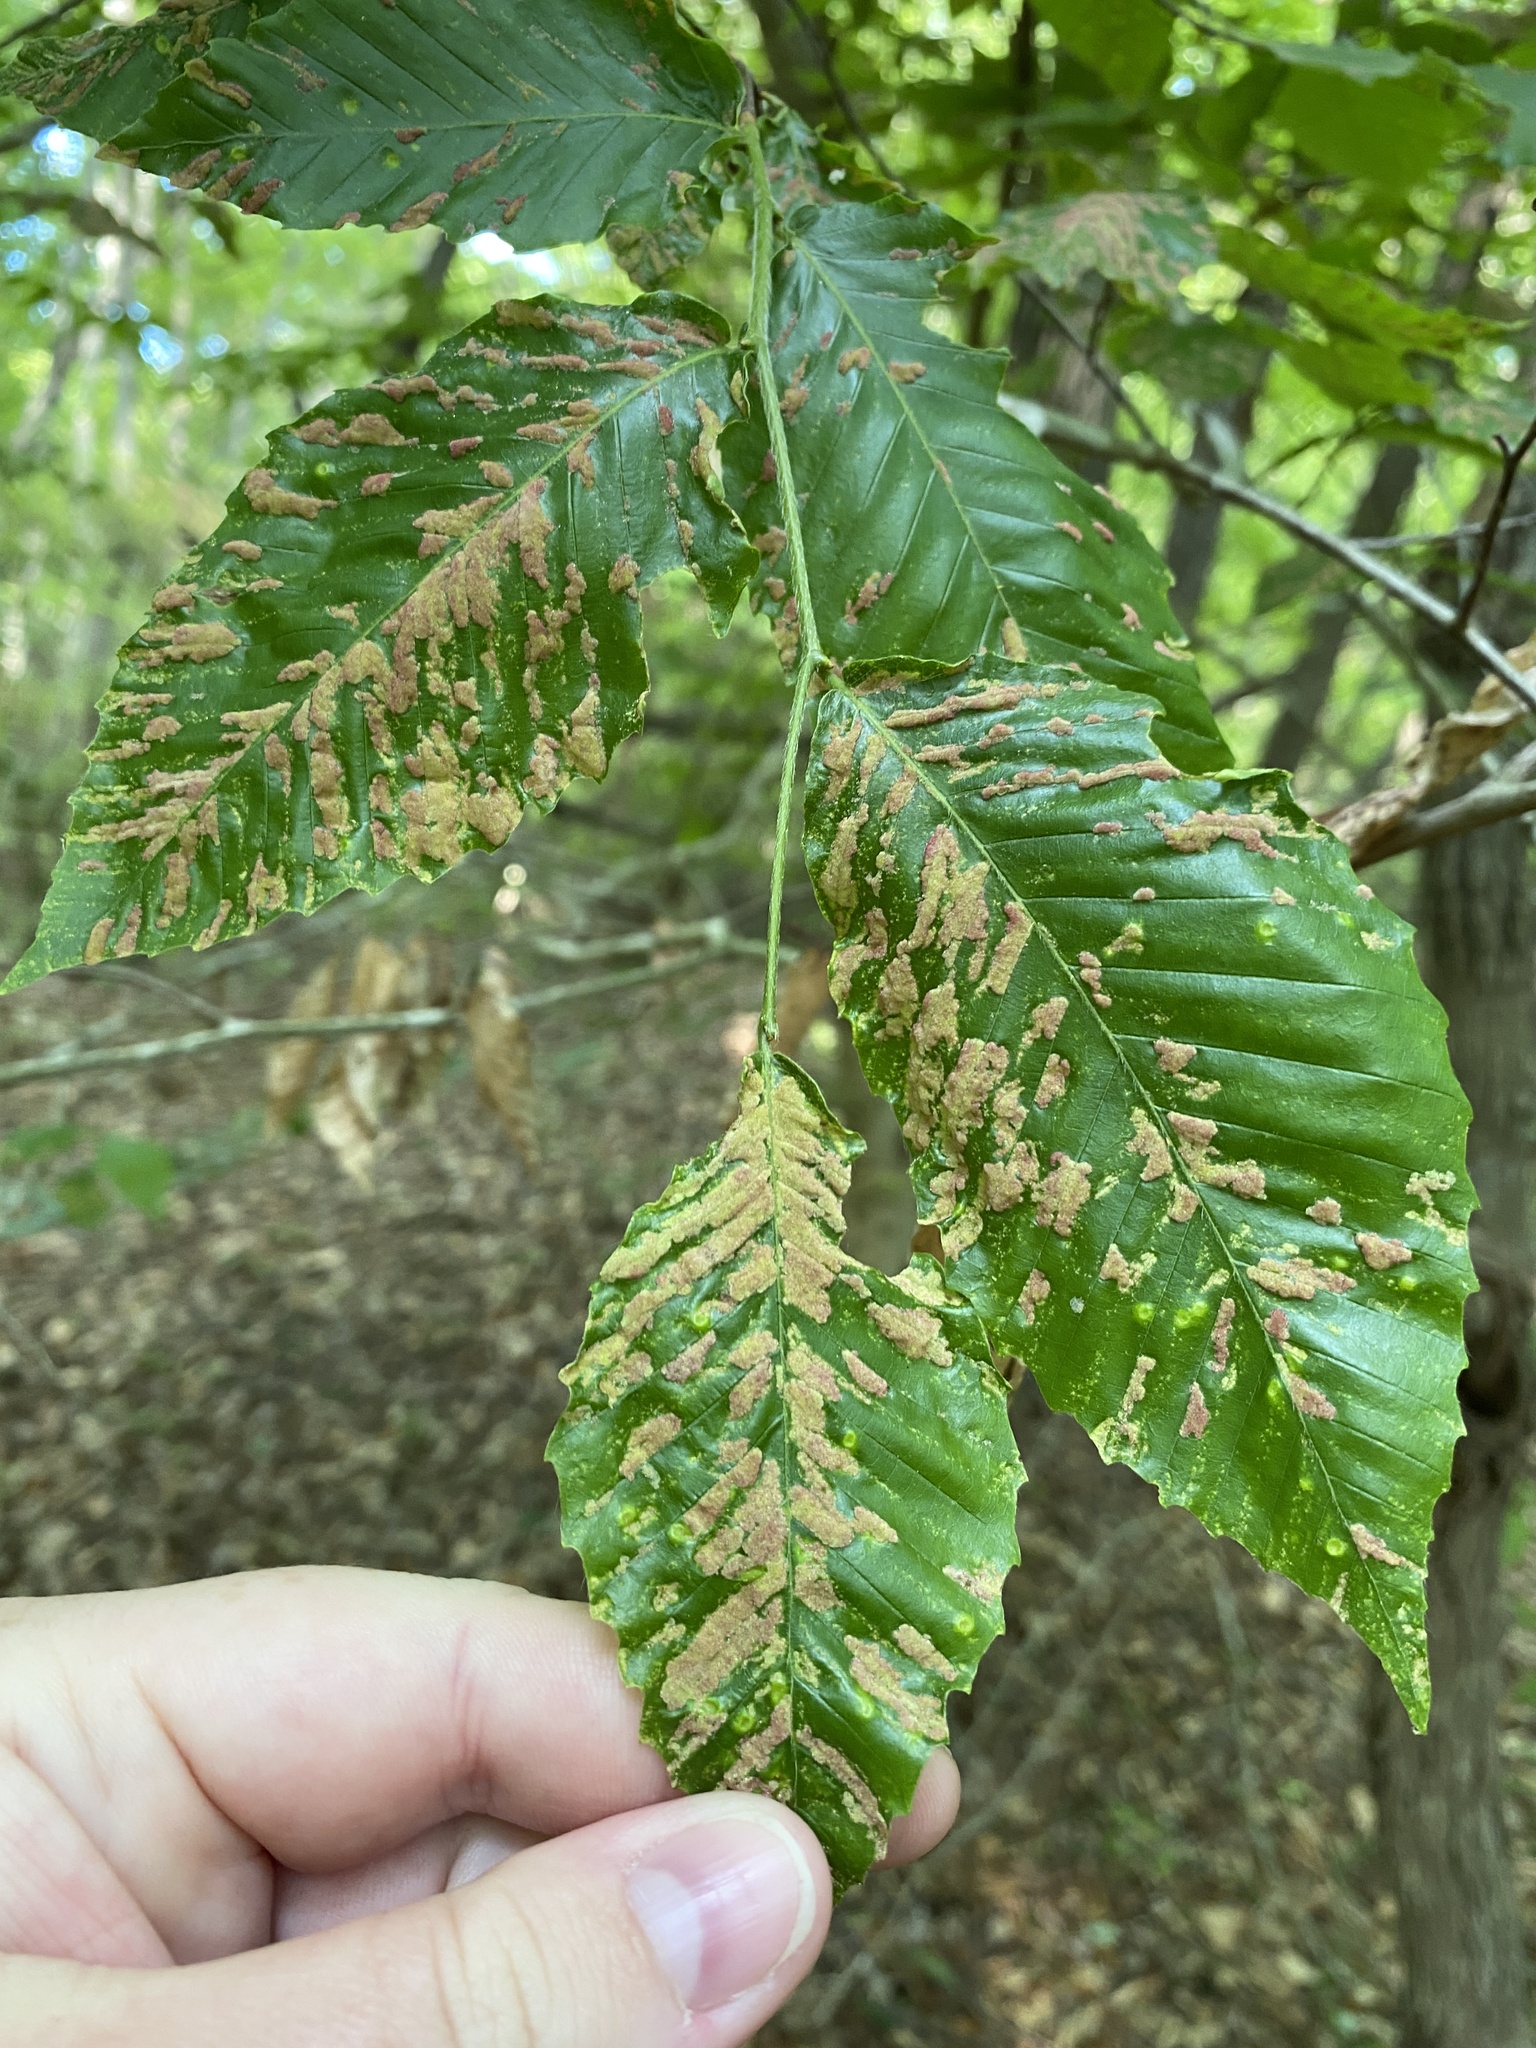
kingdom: Animalia
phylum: Arthropoda
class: Arachnida
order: Trombidiformes
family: Eriophyidae
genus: Acalitus
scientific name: Acalitus
